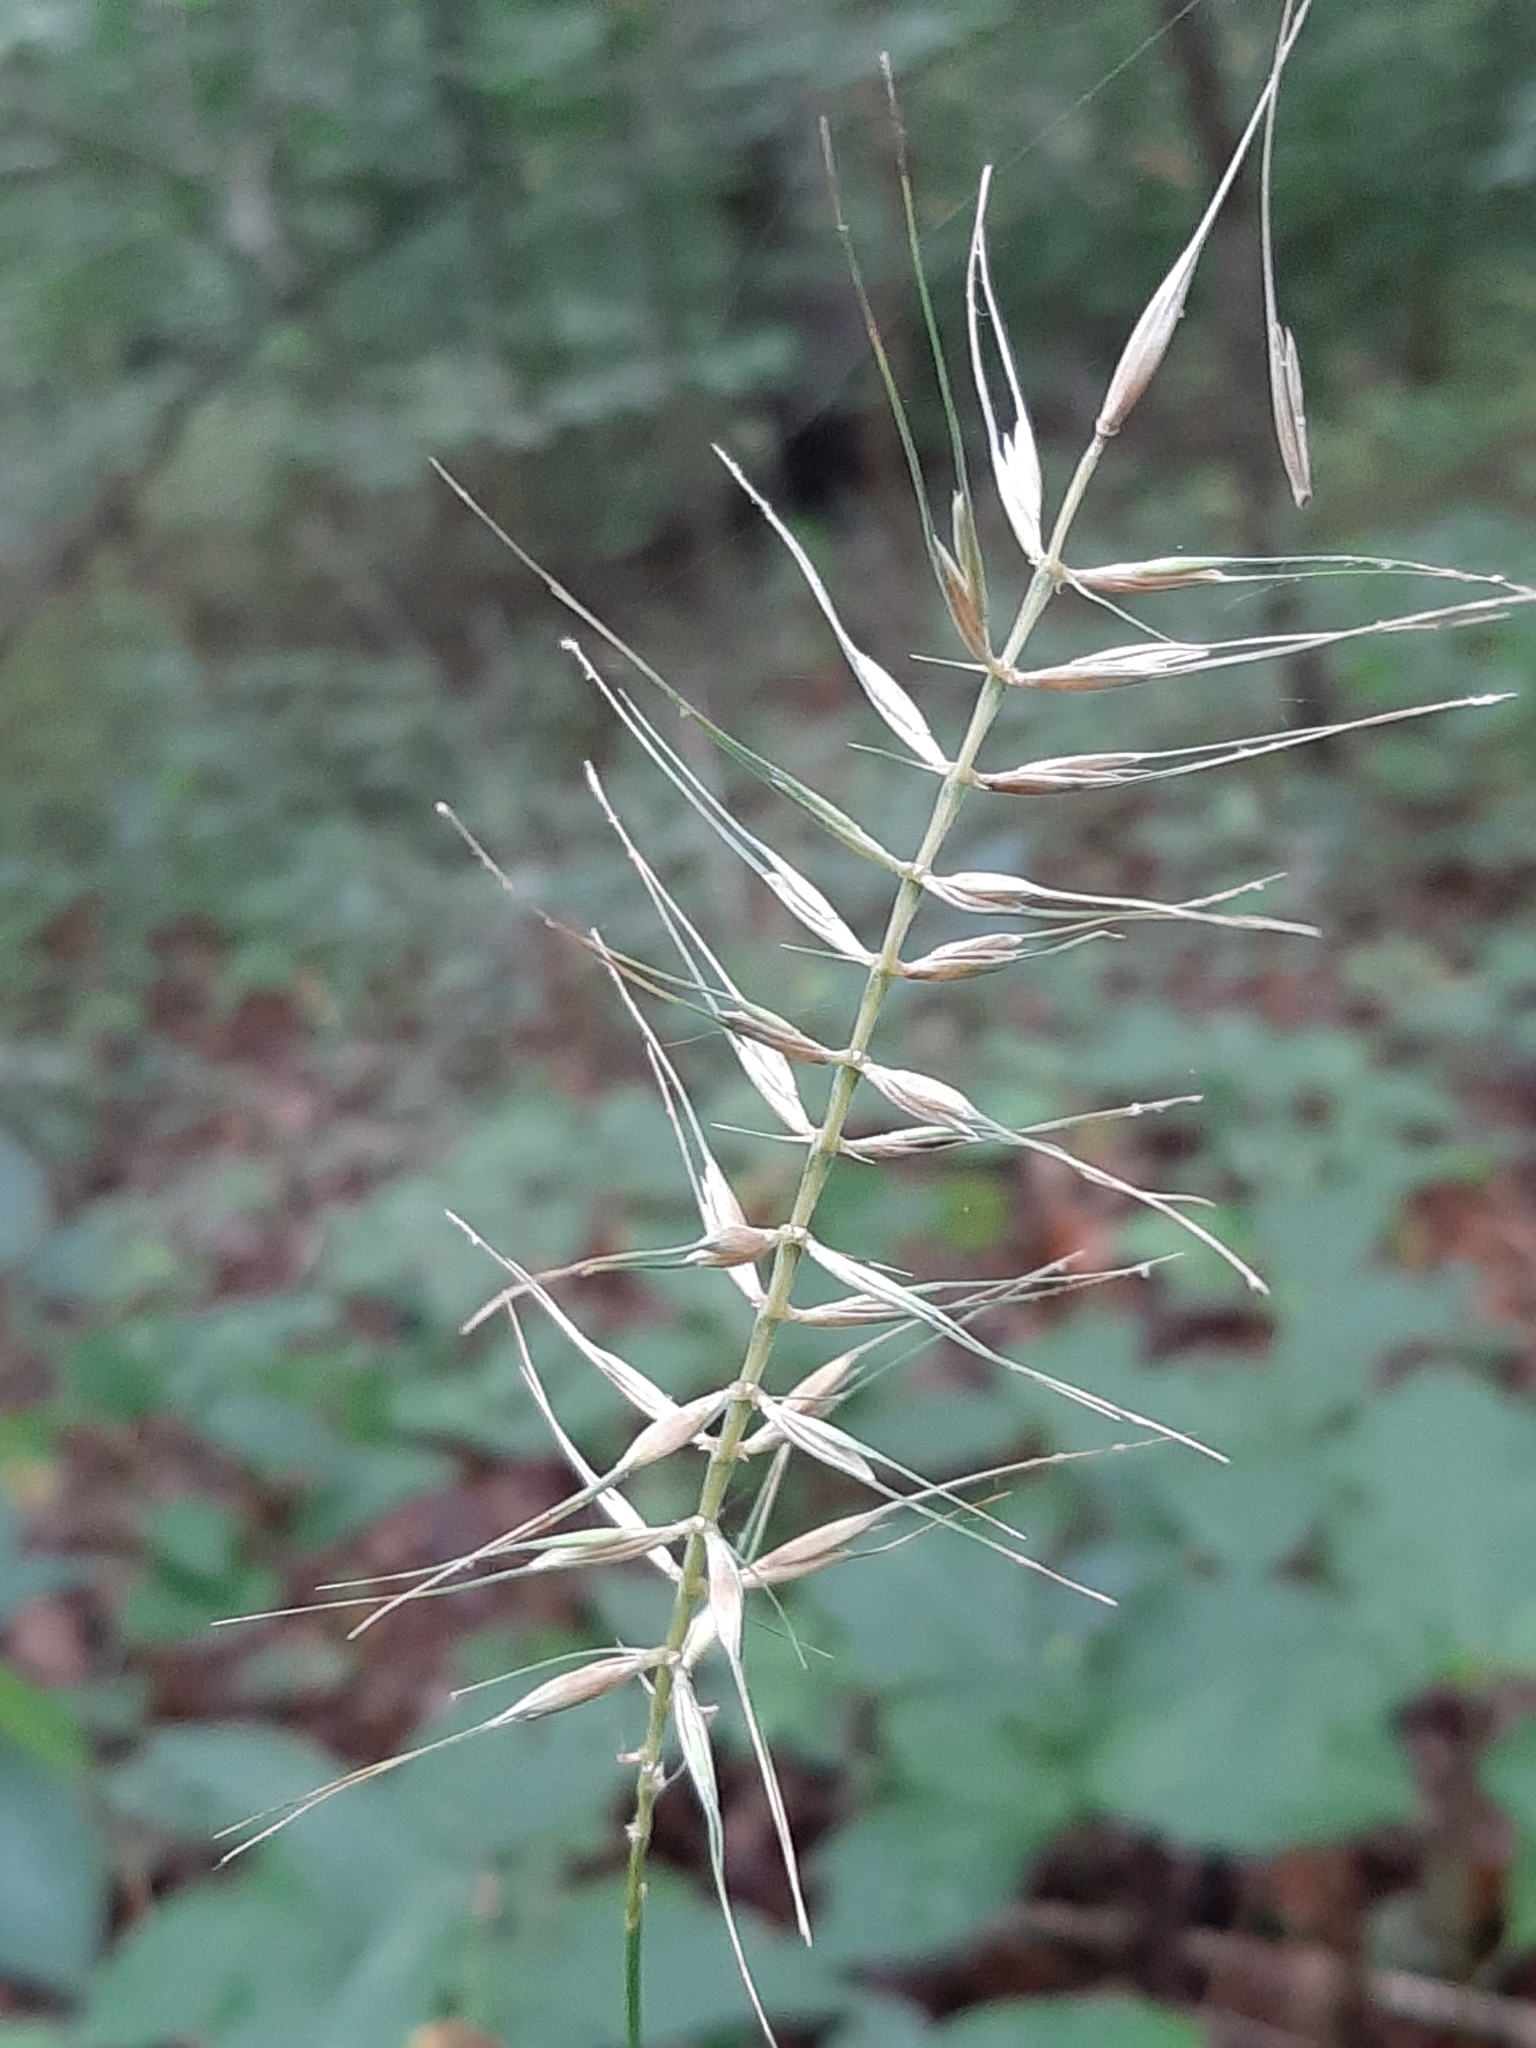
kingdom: Plantae
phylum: Tracheophyta
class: Liliopsida
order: Poales
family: Poaceae
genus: Elymus
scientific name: Elymus hystrix
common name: Bottlebrush grass
